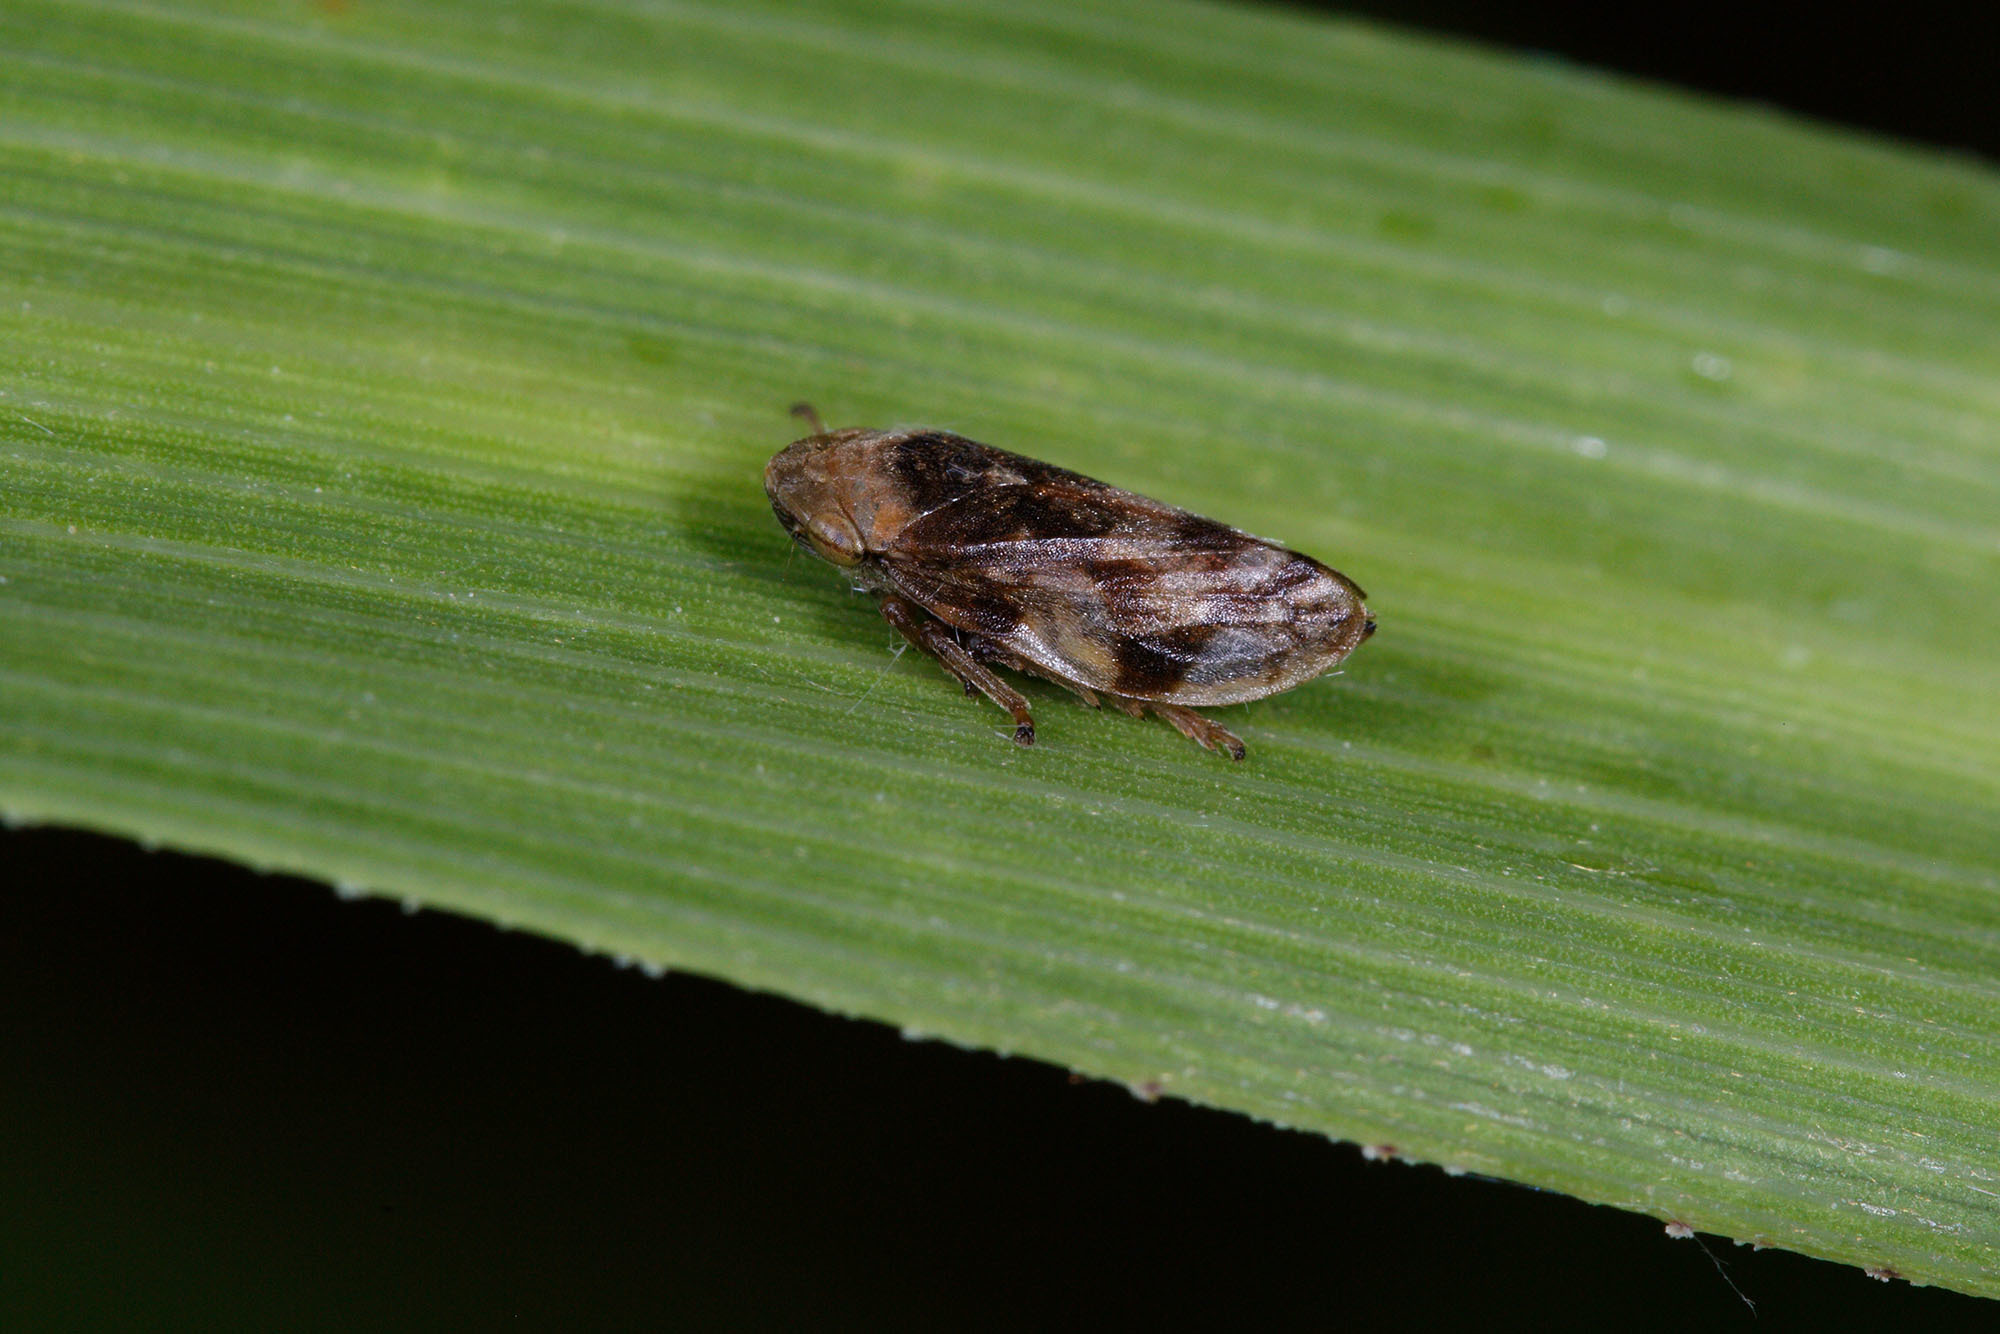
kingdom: Animalia
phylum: Arthropoda
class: Insecta
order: Hemiptera
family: Aphrophoridae
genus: Philaenus
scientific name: Philaenus spumarius
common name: Meadow spittlebug
